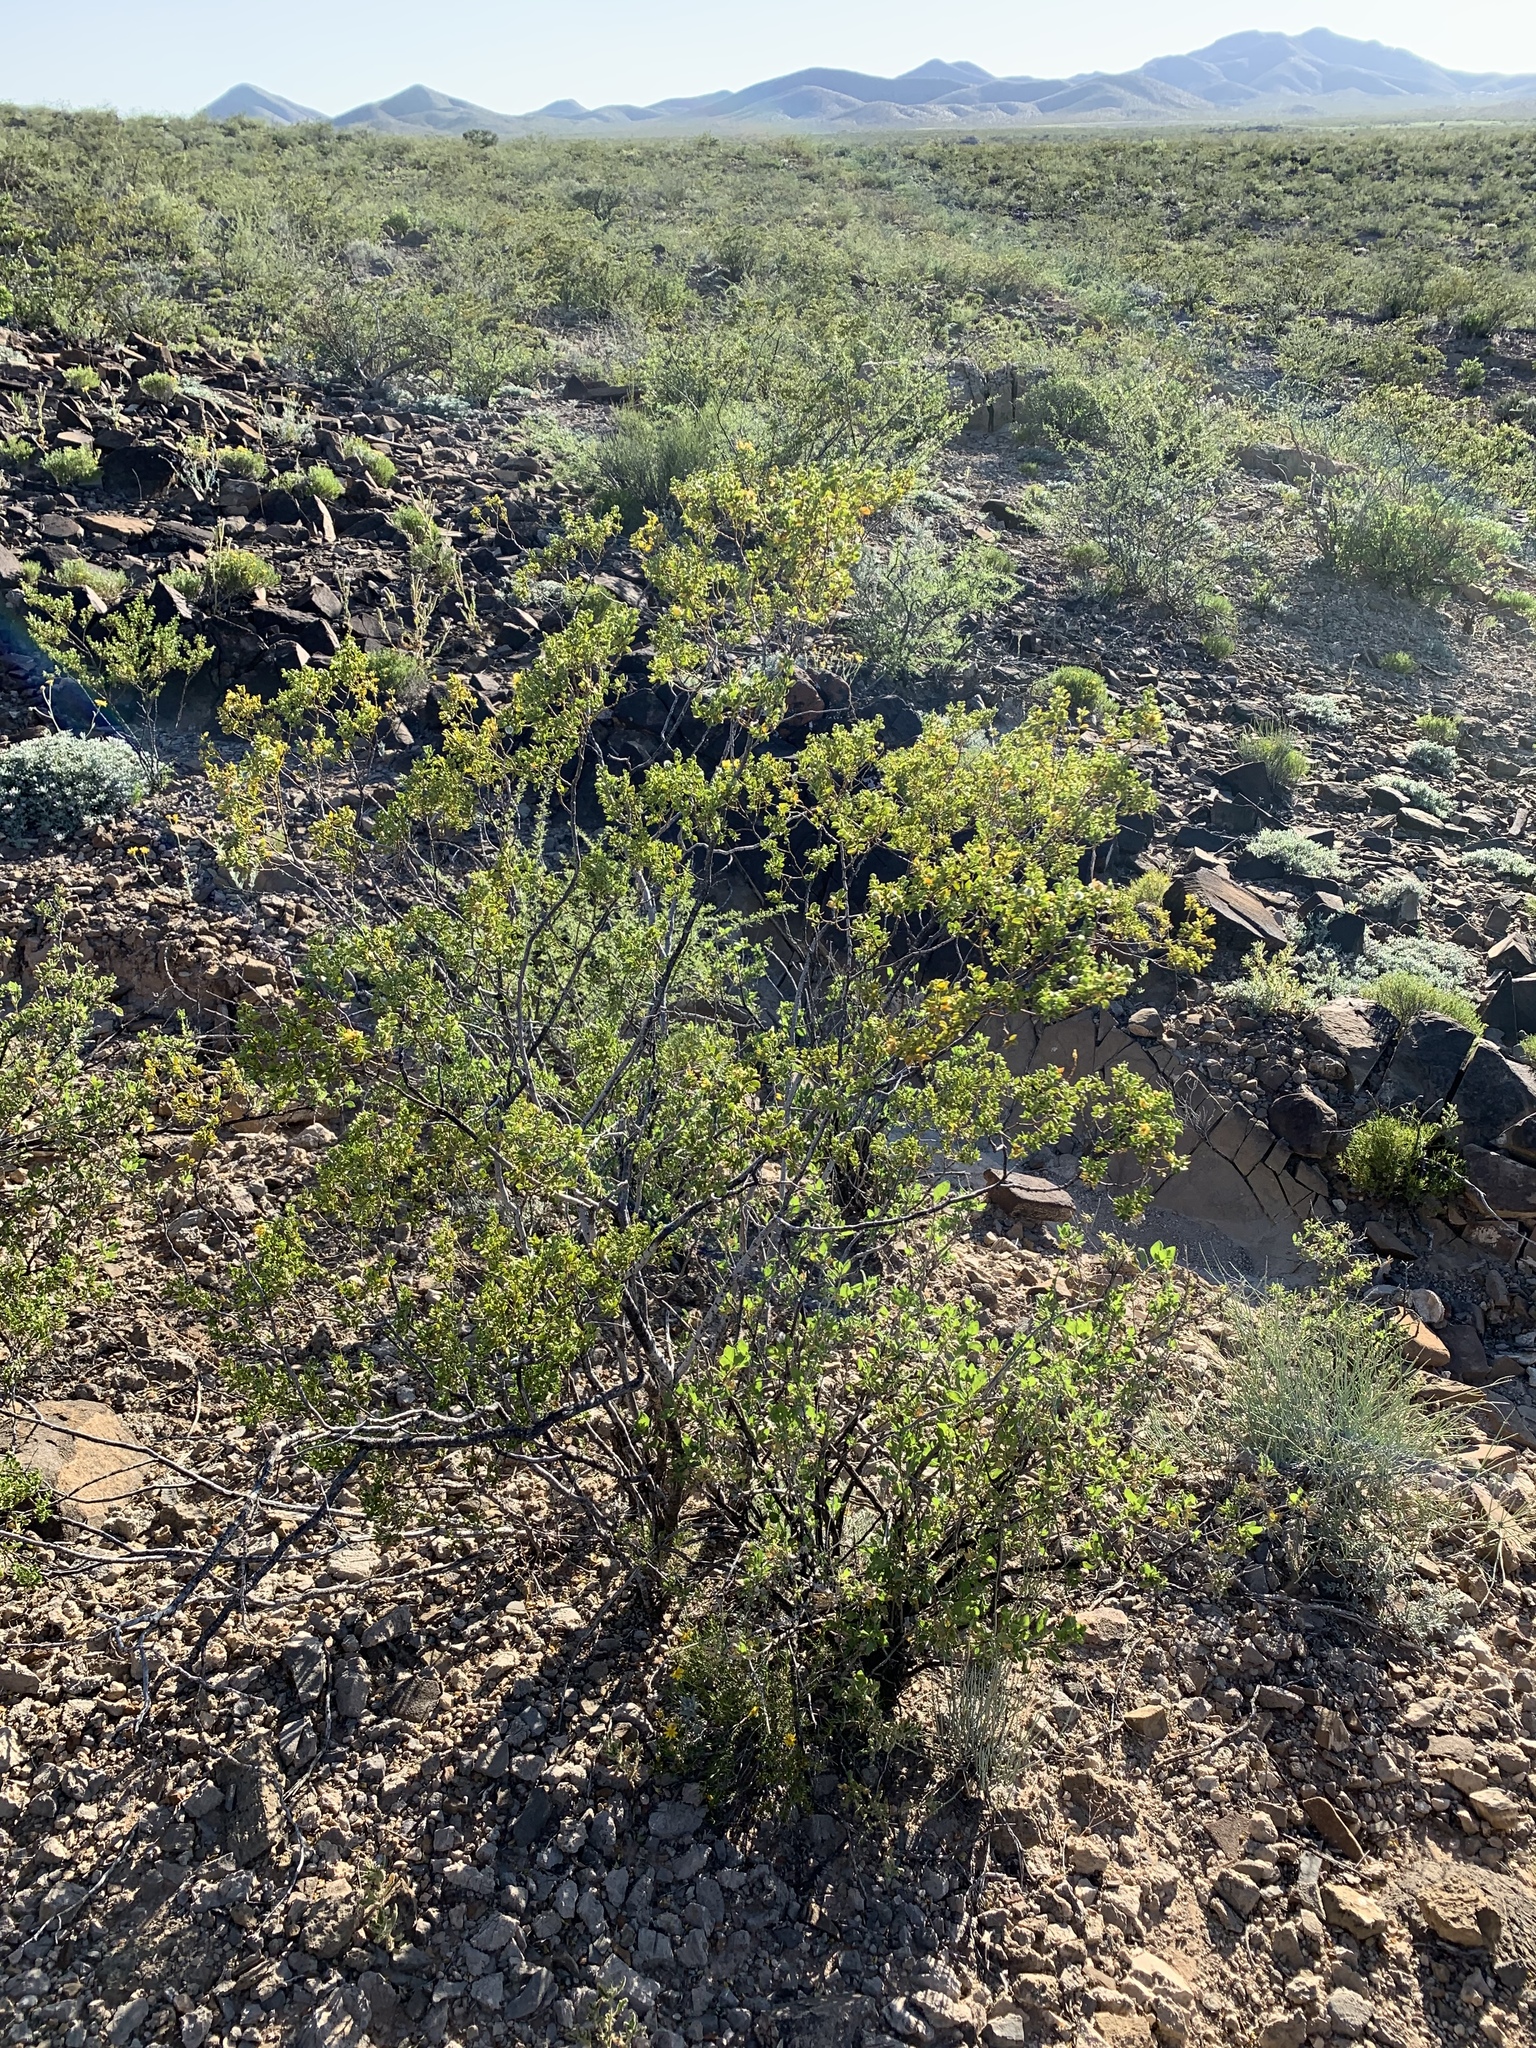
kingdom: Plantae
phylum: Tracheophyta
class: Magnoliopsida
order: Zygophyllales
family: Zygophyllaceae
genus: Larrea
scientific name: Larrea tridentata
